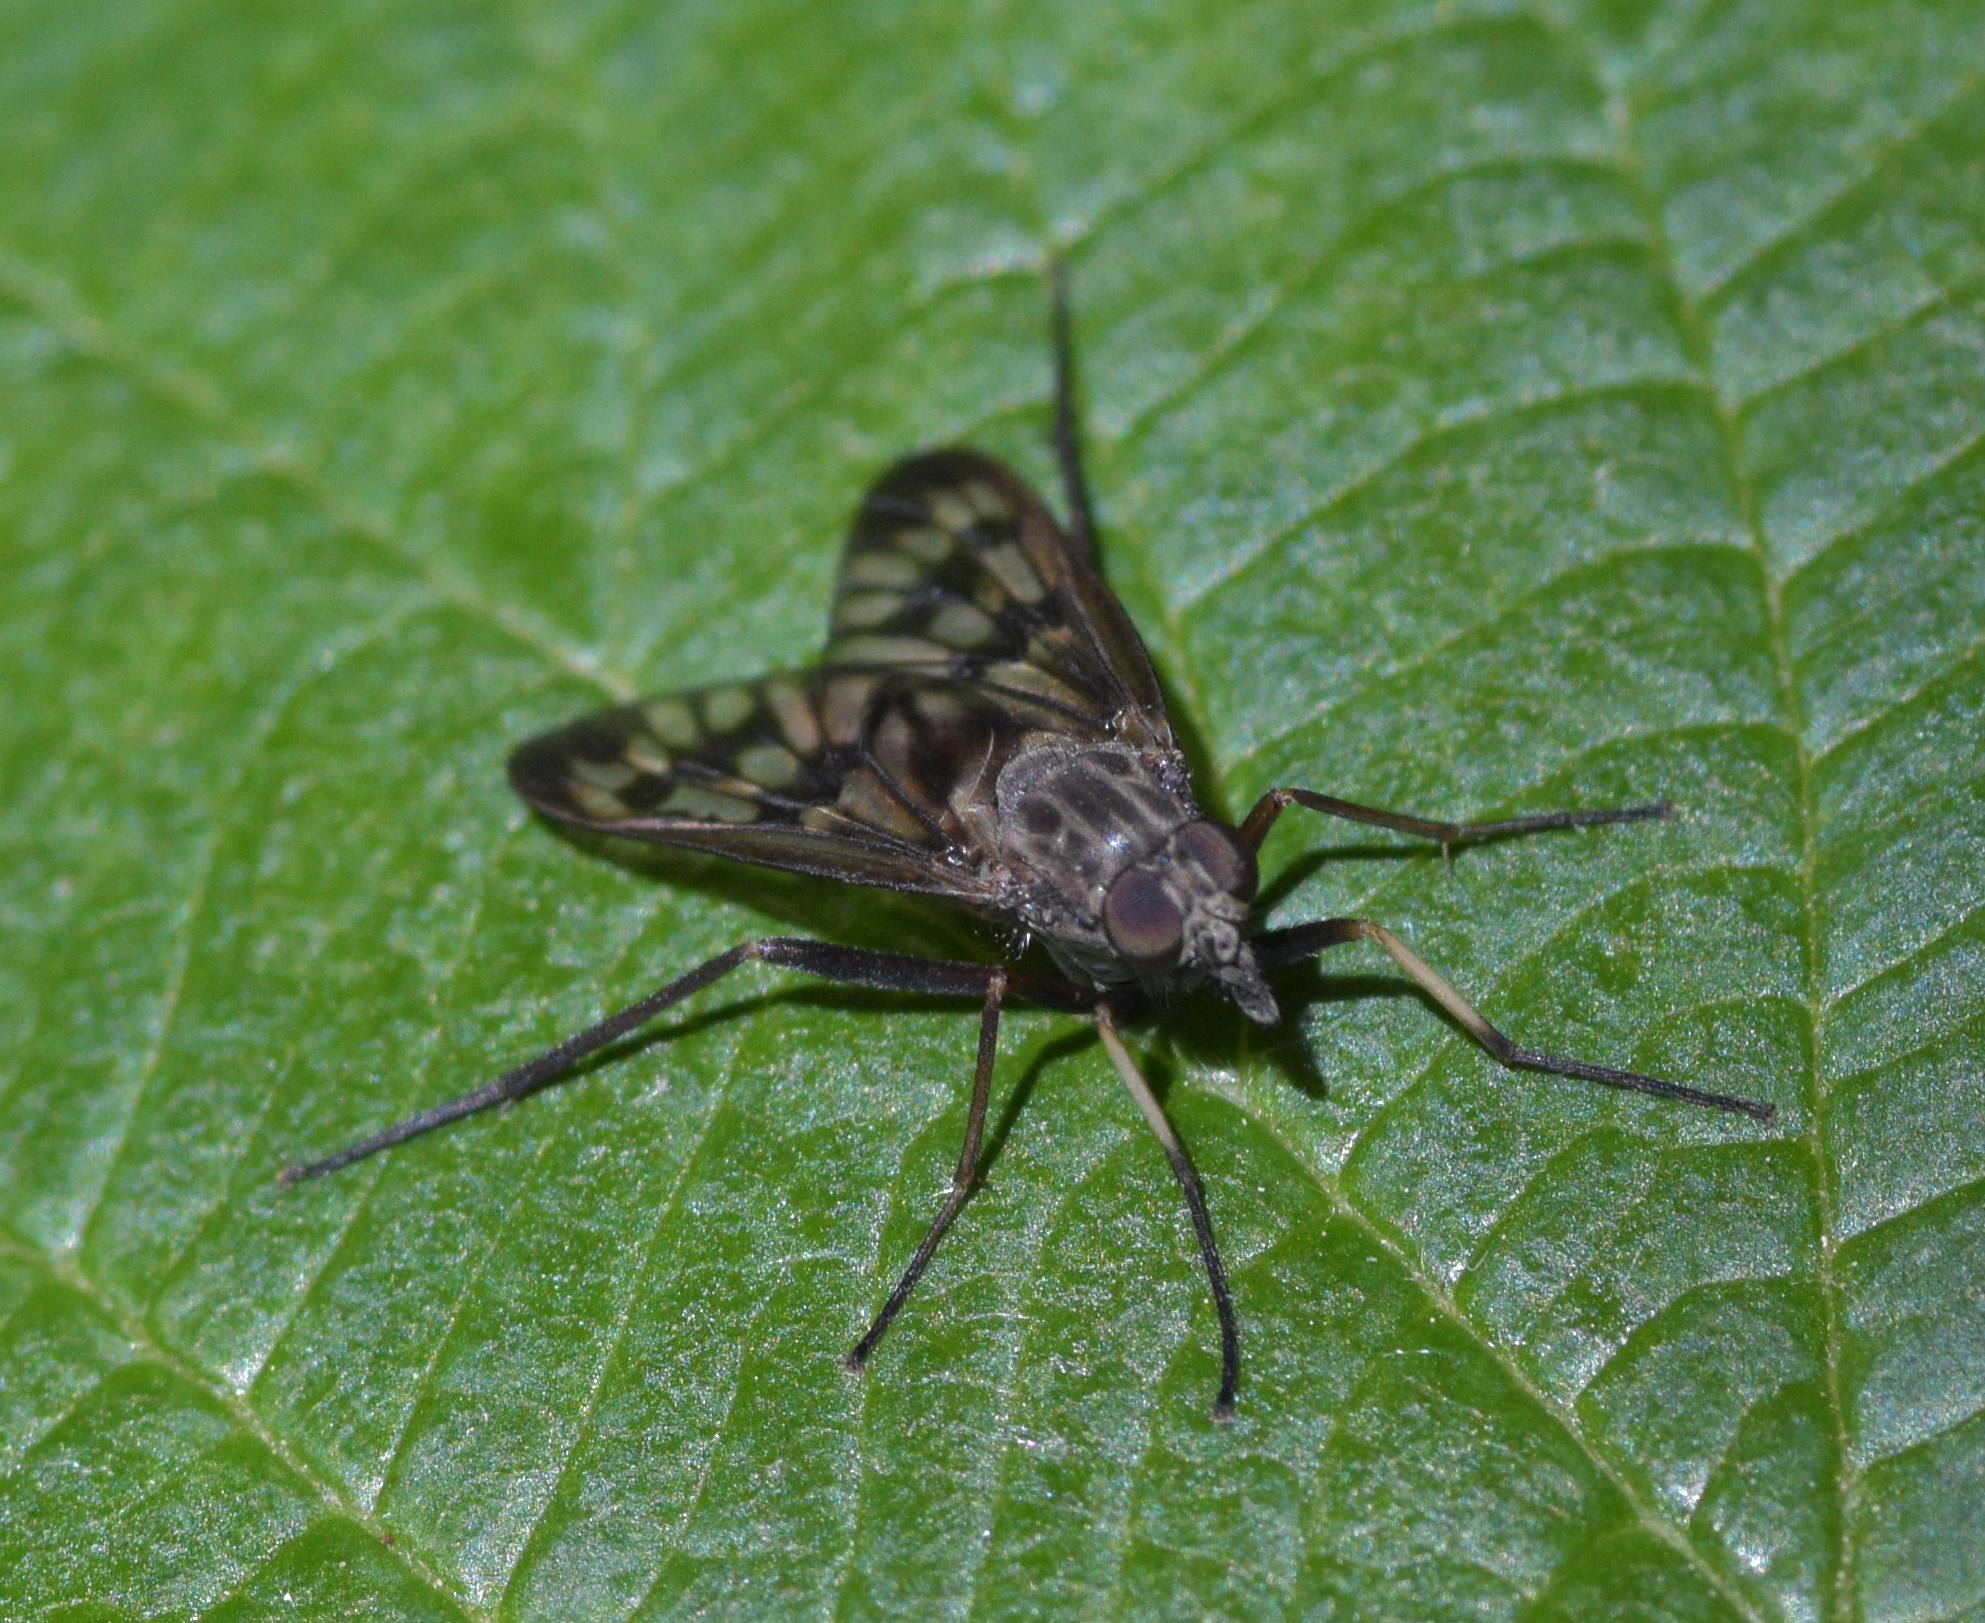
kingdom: Animalia
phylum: Arthropoda
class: Insecta
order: Diptera
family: Rhagionidae
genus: Rhagio
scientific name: Rhagio mystaceus
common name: Common snipe fly
